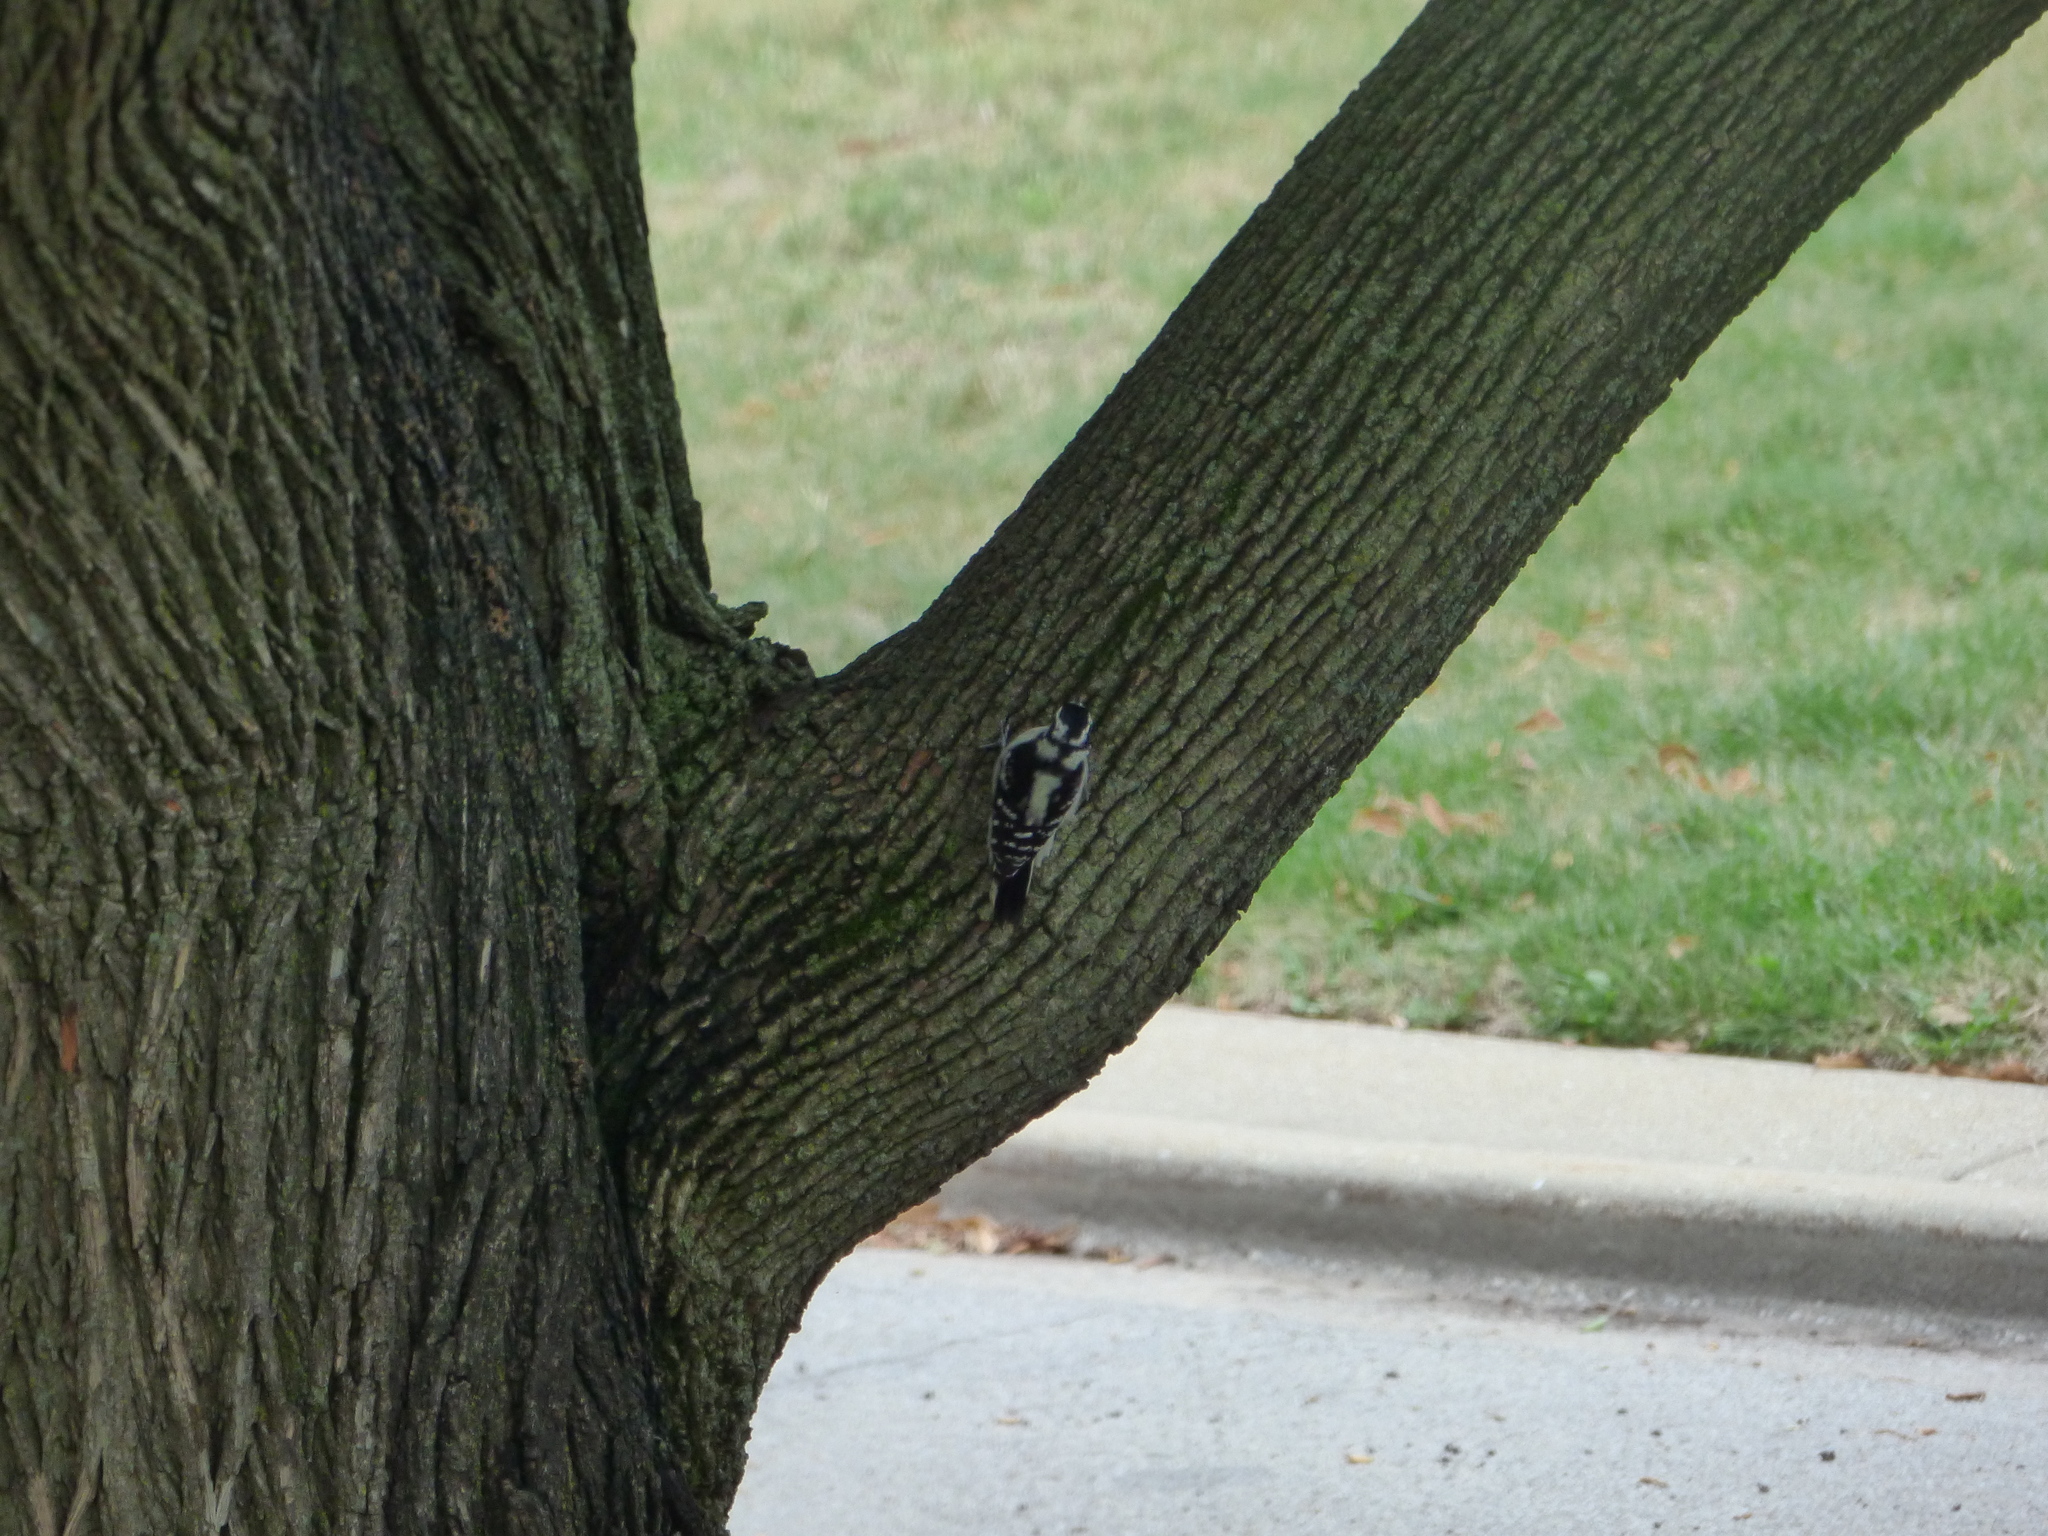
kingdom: Animalia
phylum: Chordata
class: Aves
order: Piciformes
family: Picidae
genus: Dryobates
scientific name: Dryobates pubescens
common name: Downy woodpecker
